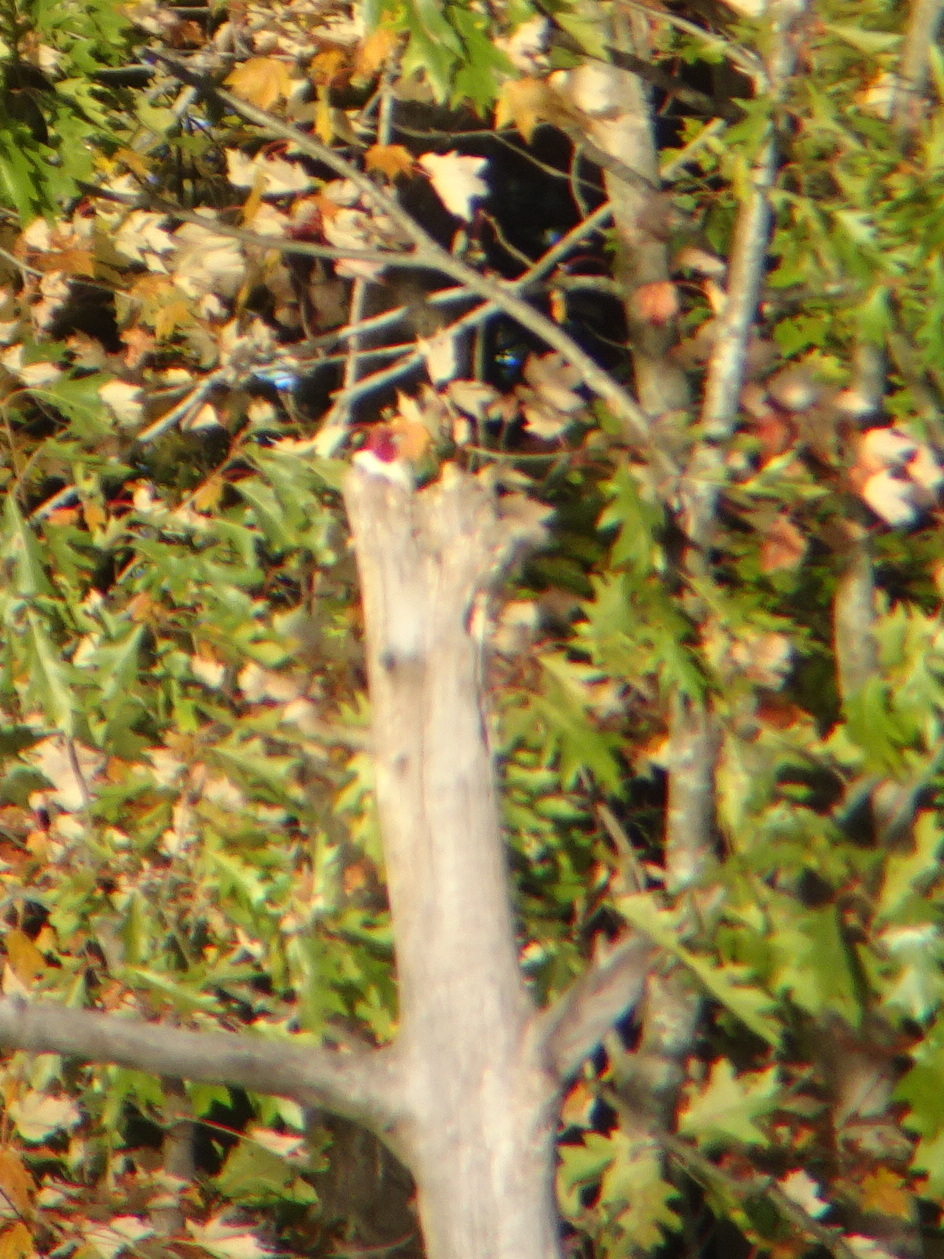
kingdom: Animalia
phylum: Chordata
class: Aves
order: Piciformes
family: Picidae
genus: Melanerpes
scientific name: Melanerpes erythrocephalus
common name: Red-headed woodpecker
